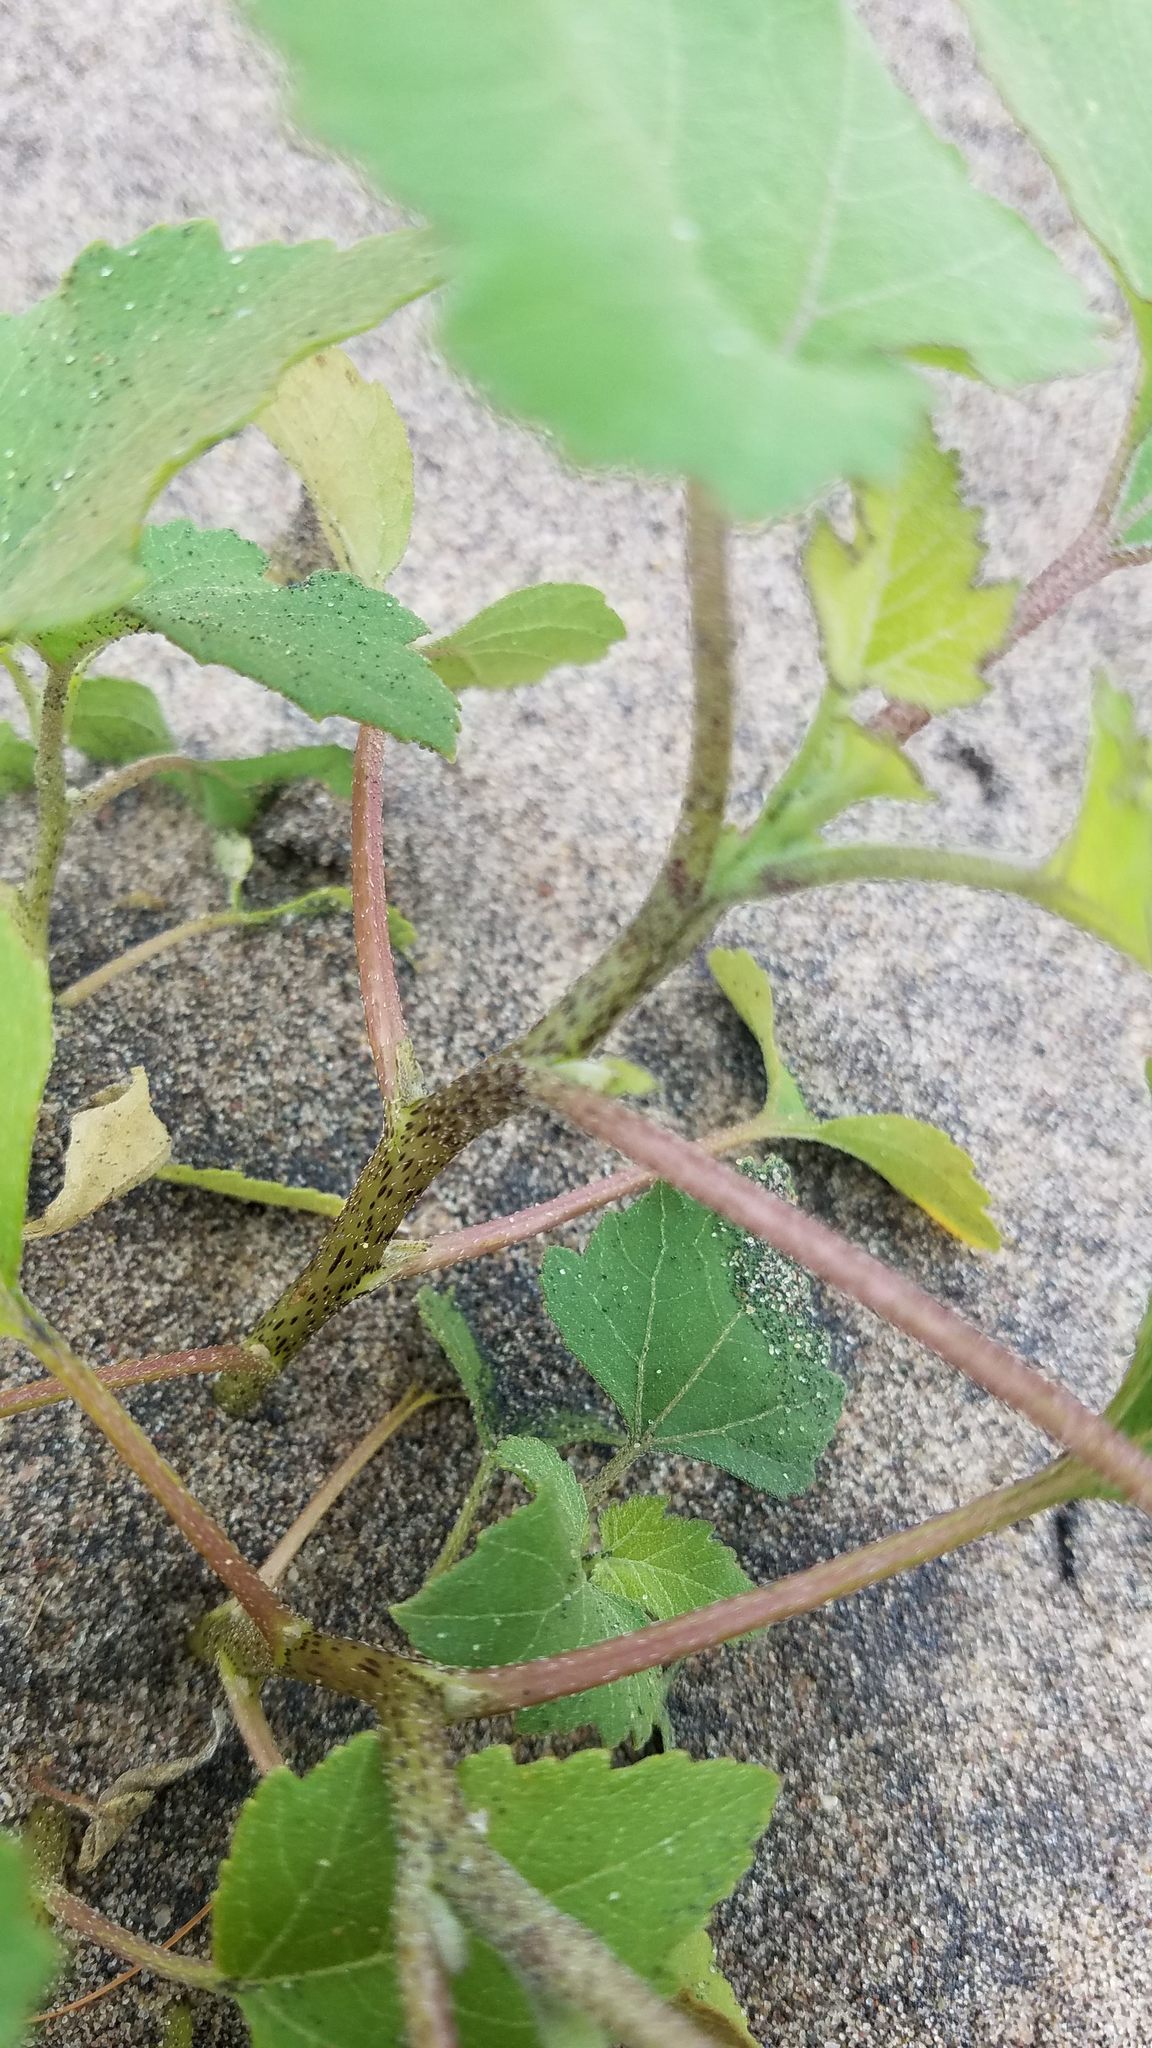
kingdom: Plantae
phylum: Tracheophyta
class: Magnoliopsida
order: Asterales
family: Asteraceae
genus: Xanthium
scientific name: Xanthium strumarium
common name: Rough cocklebur
